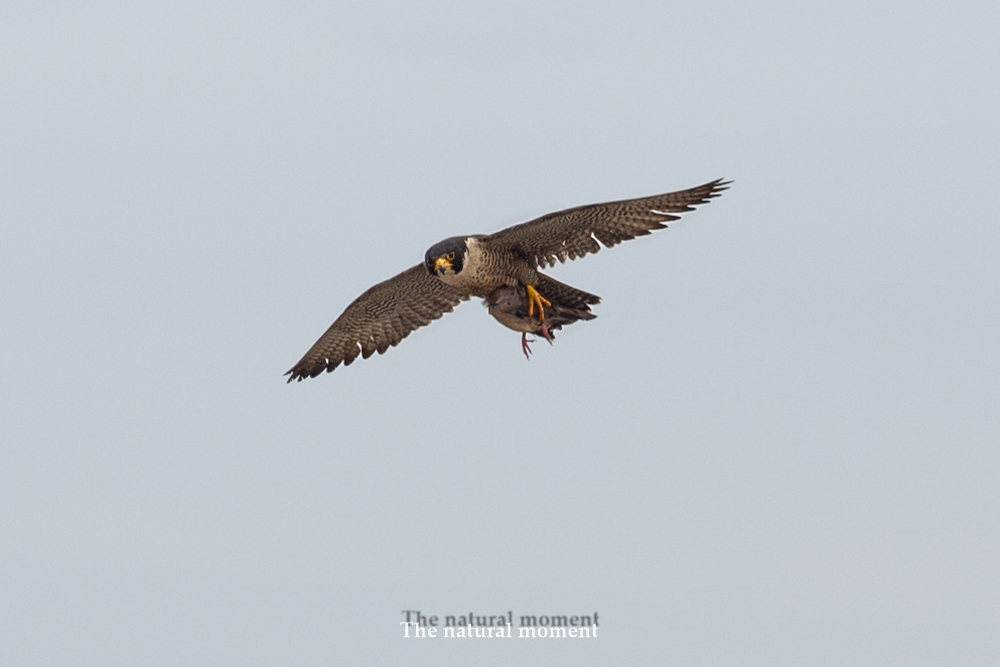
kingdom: Animalia
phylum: Chordata
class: Aves
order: Falconiformes
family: Falconidae
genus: Falco
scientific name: Falco peregrinus
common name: Peregrine falcon
